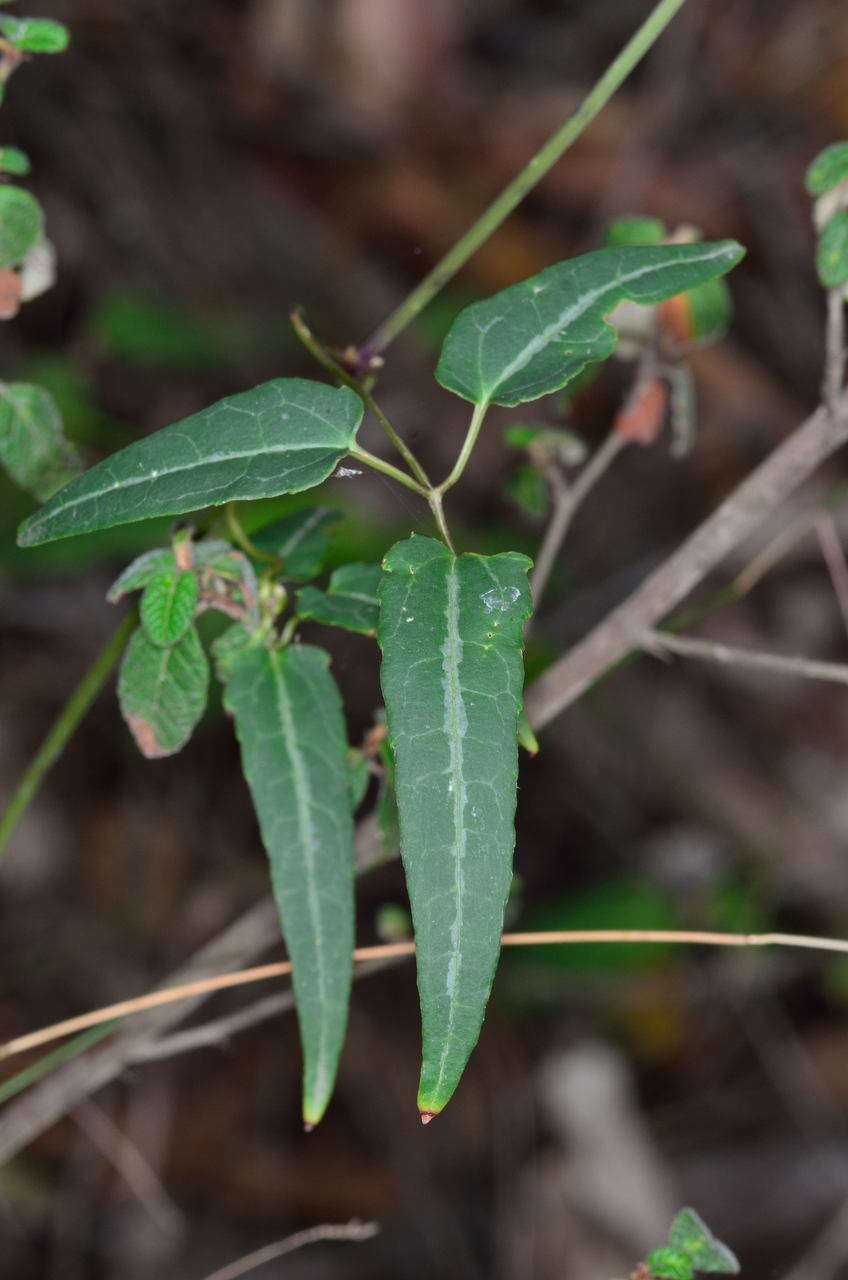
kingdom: Plantae
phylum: Tracheophyta
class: Magnoliopsida
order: Ranunculales
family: Ranunculaceae
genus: Clematis
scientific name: Clematis aristata
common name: Mountain clematis
